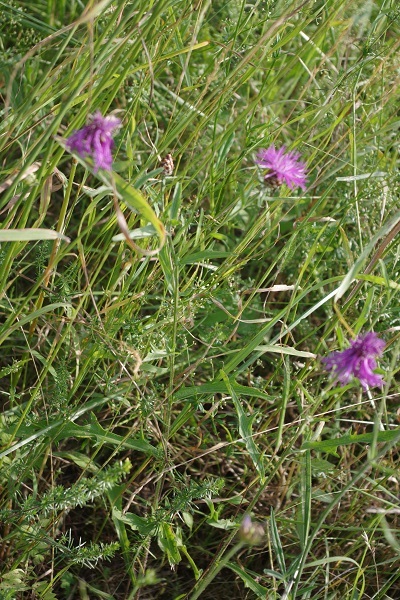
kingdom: Plantae
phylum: Tracheophyta
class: Magnoliopsida
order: Asterales
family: Asteraceae
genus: Centaurea
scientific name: Centaurea jacea
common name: Brown knapweed
